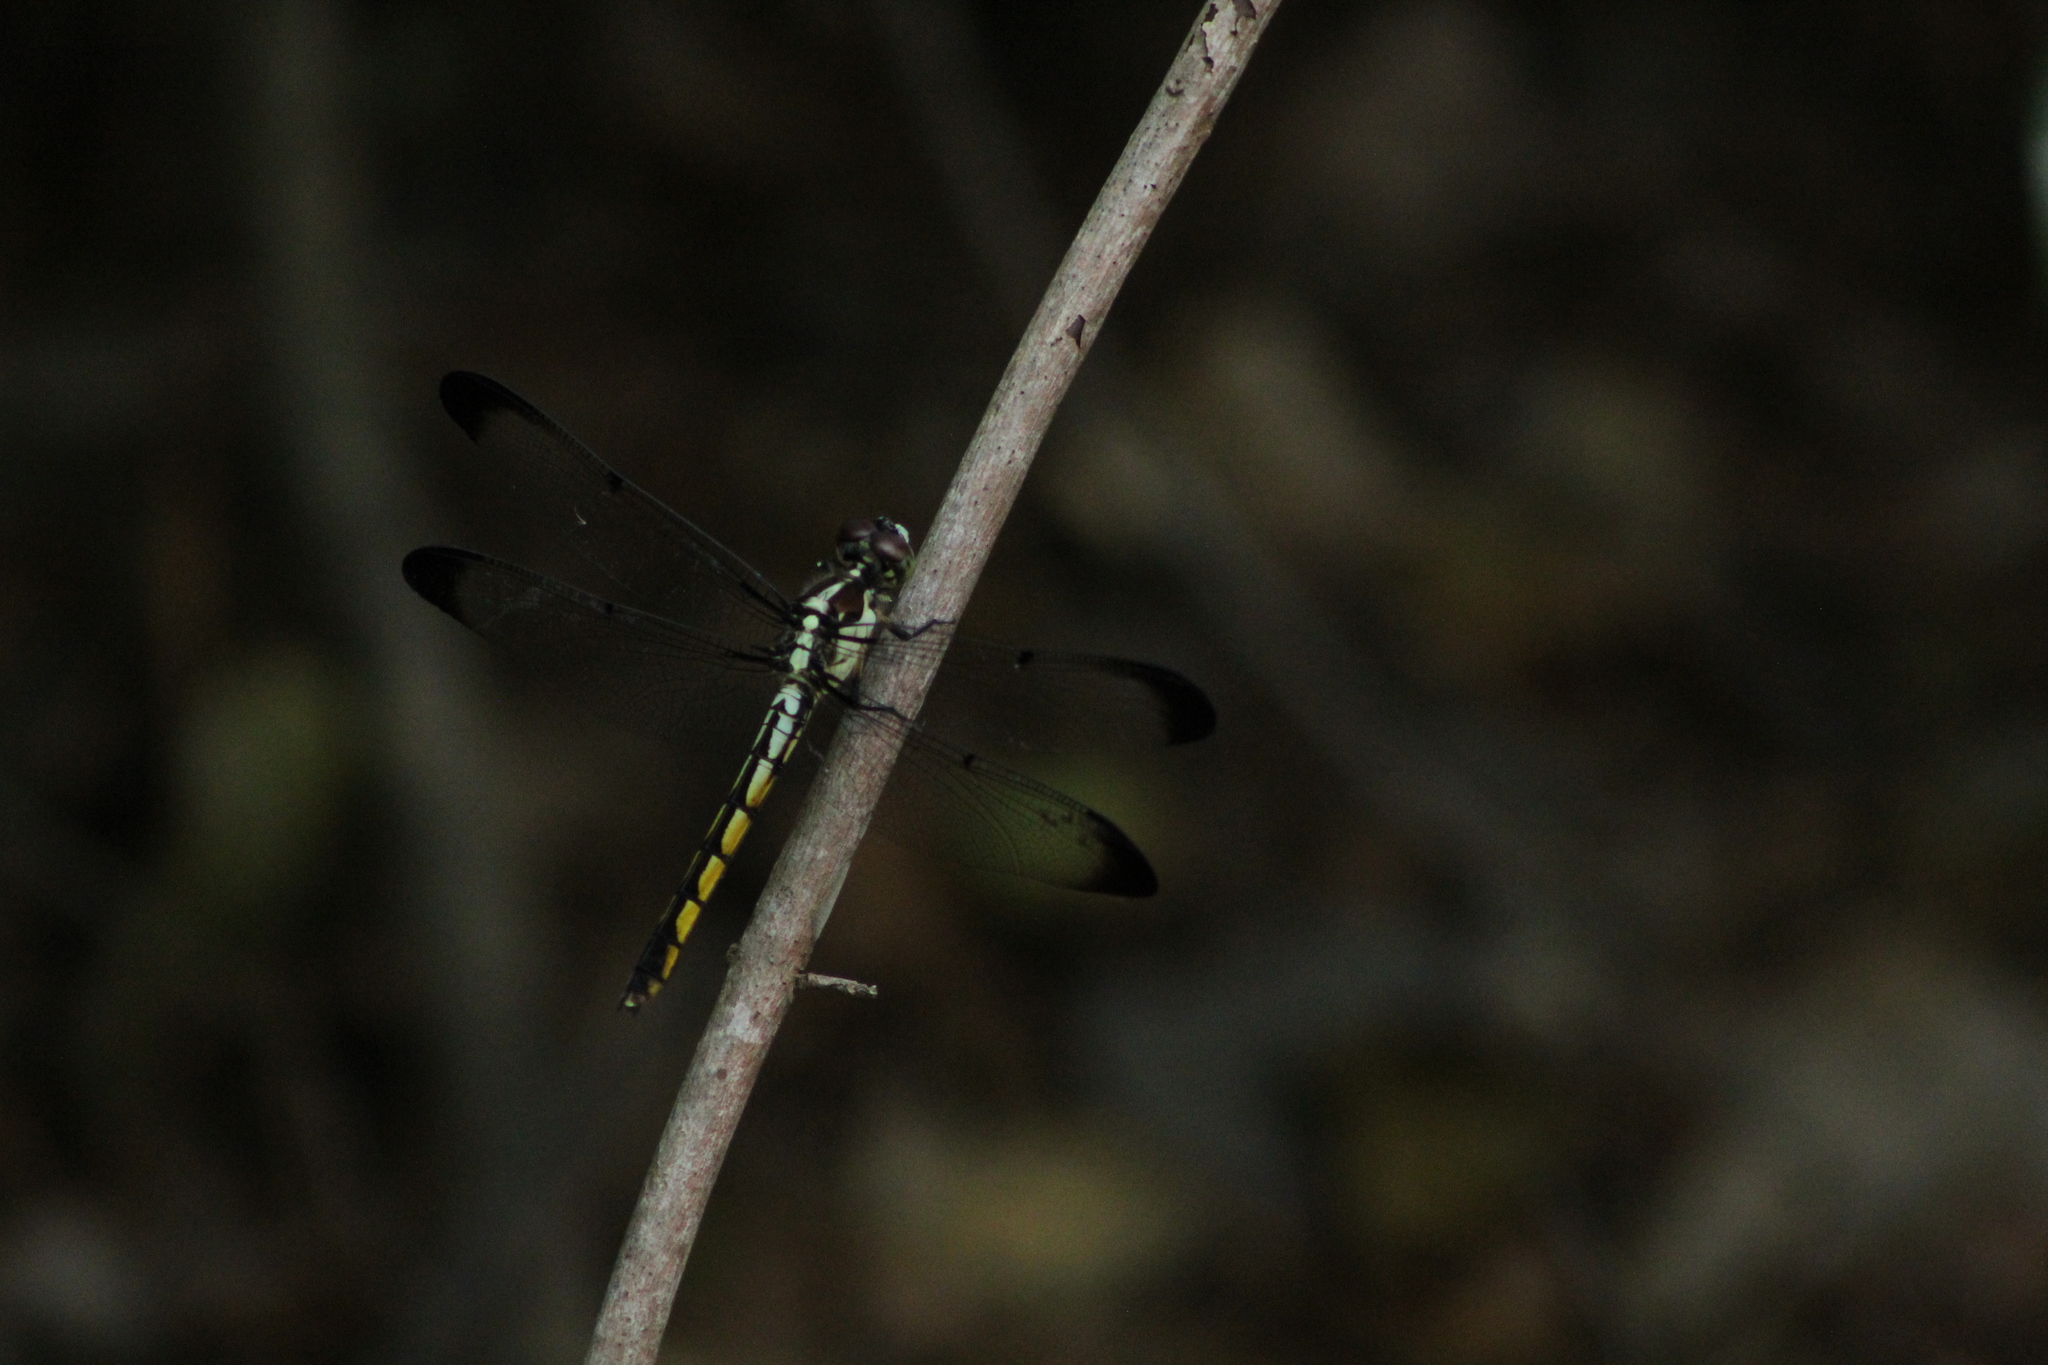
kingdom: Animalia
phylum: Arthropoda
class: Insecta
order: Odonata
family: Libellulidae
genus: Libellula
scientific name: Libellula vibrans
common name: Great blue skimmer
